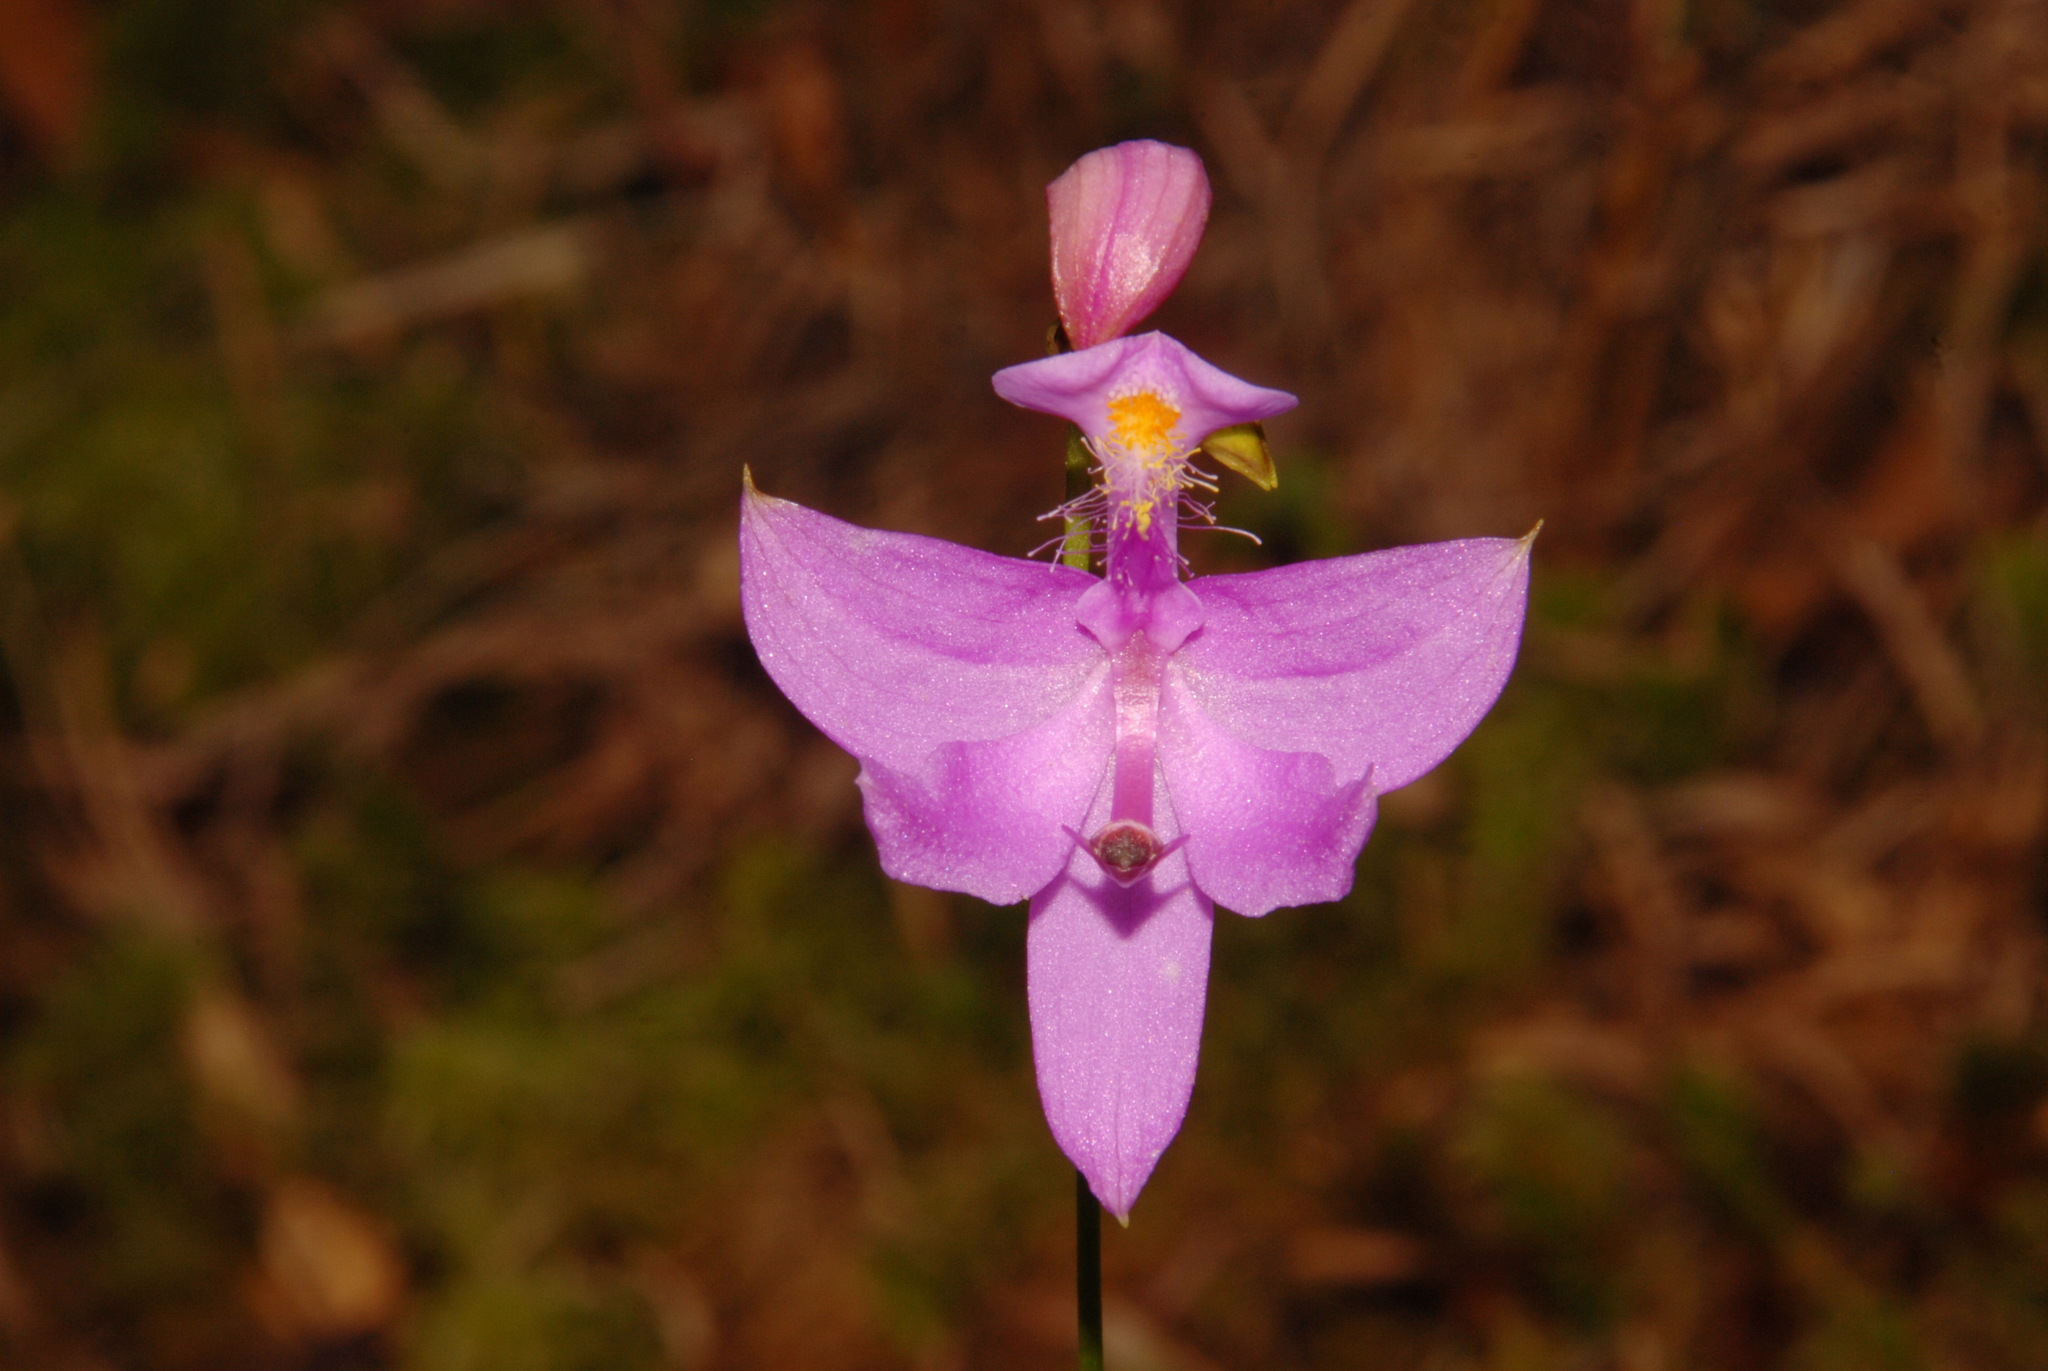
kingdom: Plantae
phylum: Tracheophyta
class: Liliopsida
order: Asparagales
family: Orchidaceae
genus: Calopogon
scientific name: Calopogon tuberosus
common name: Grass-pink
